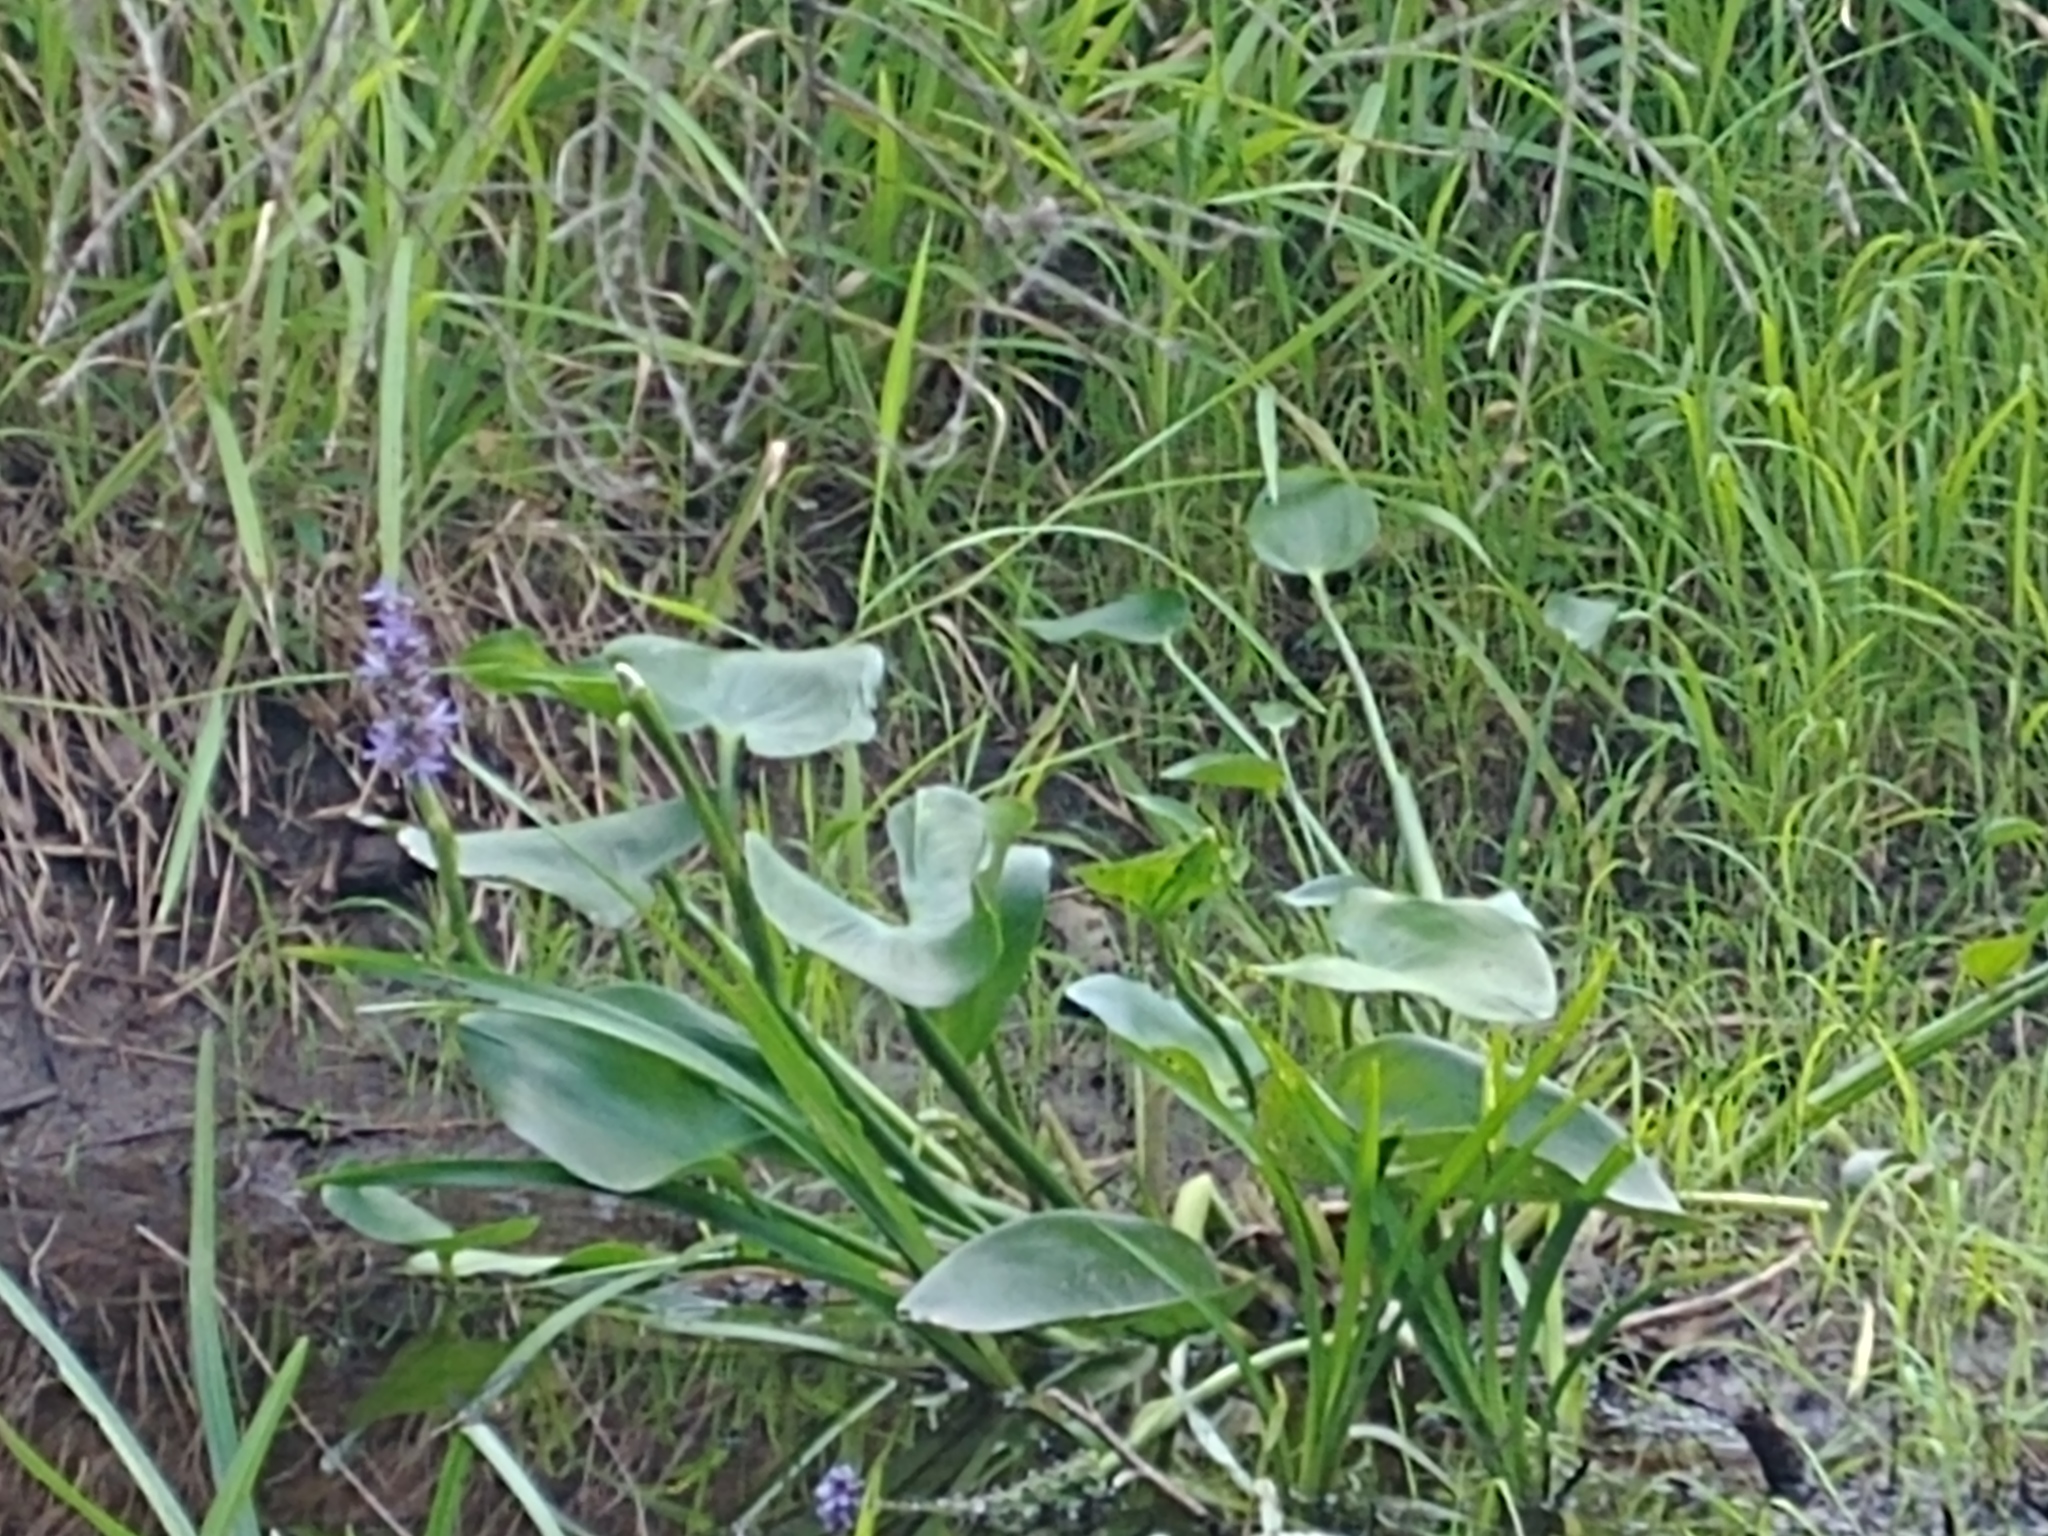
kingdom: Plantae
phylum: Tracheophyta
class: Liliopsida
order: Commelinales
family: Pontederiaceae
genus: Pontederia
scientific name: Pontederia cordata
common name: Pickerelweed
